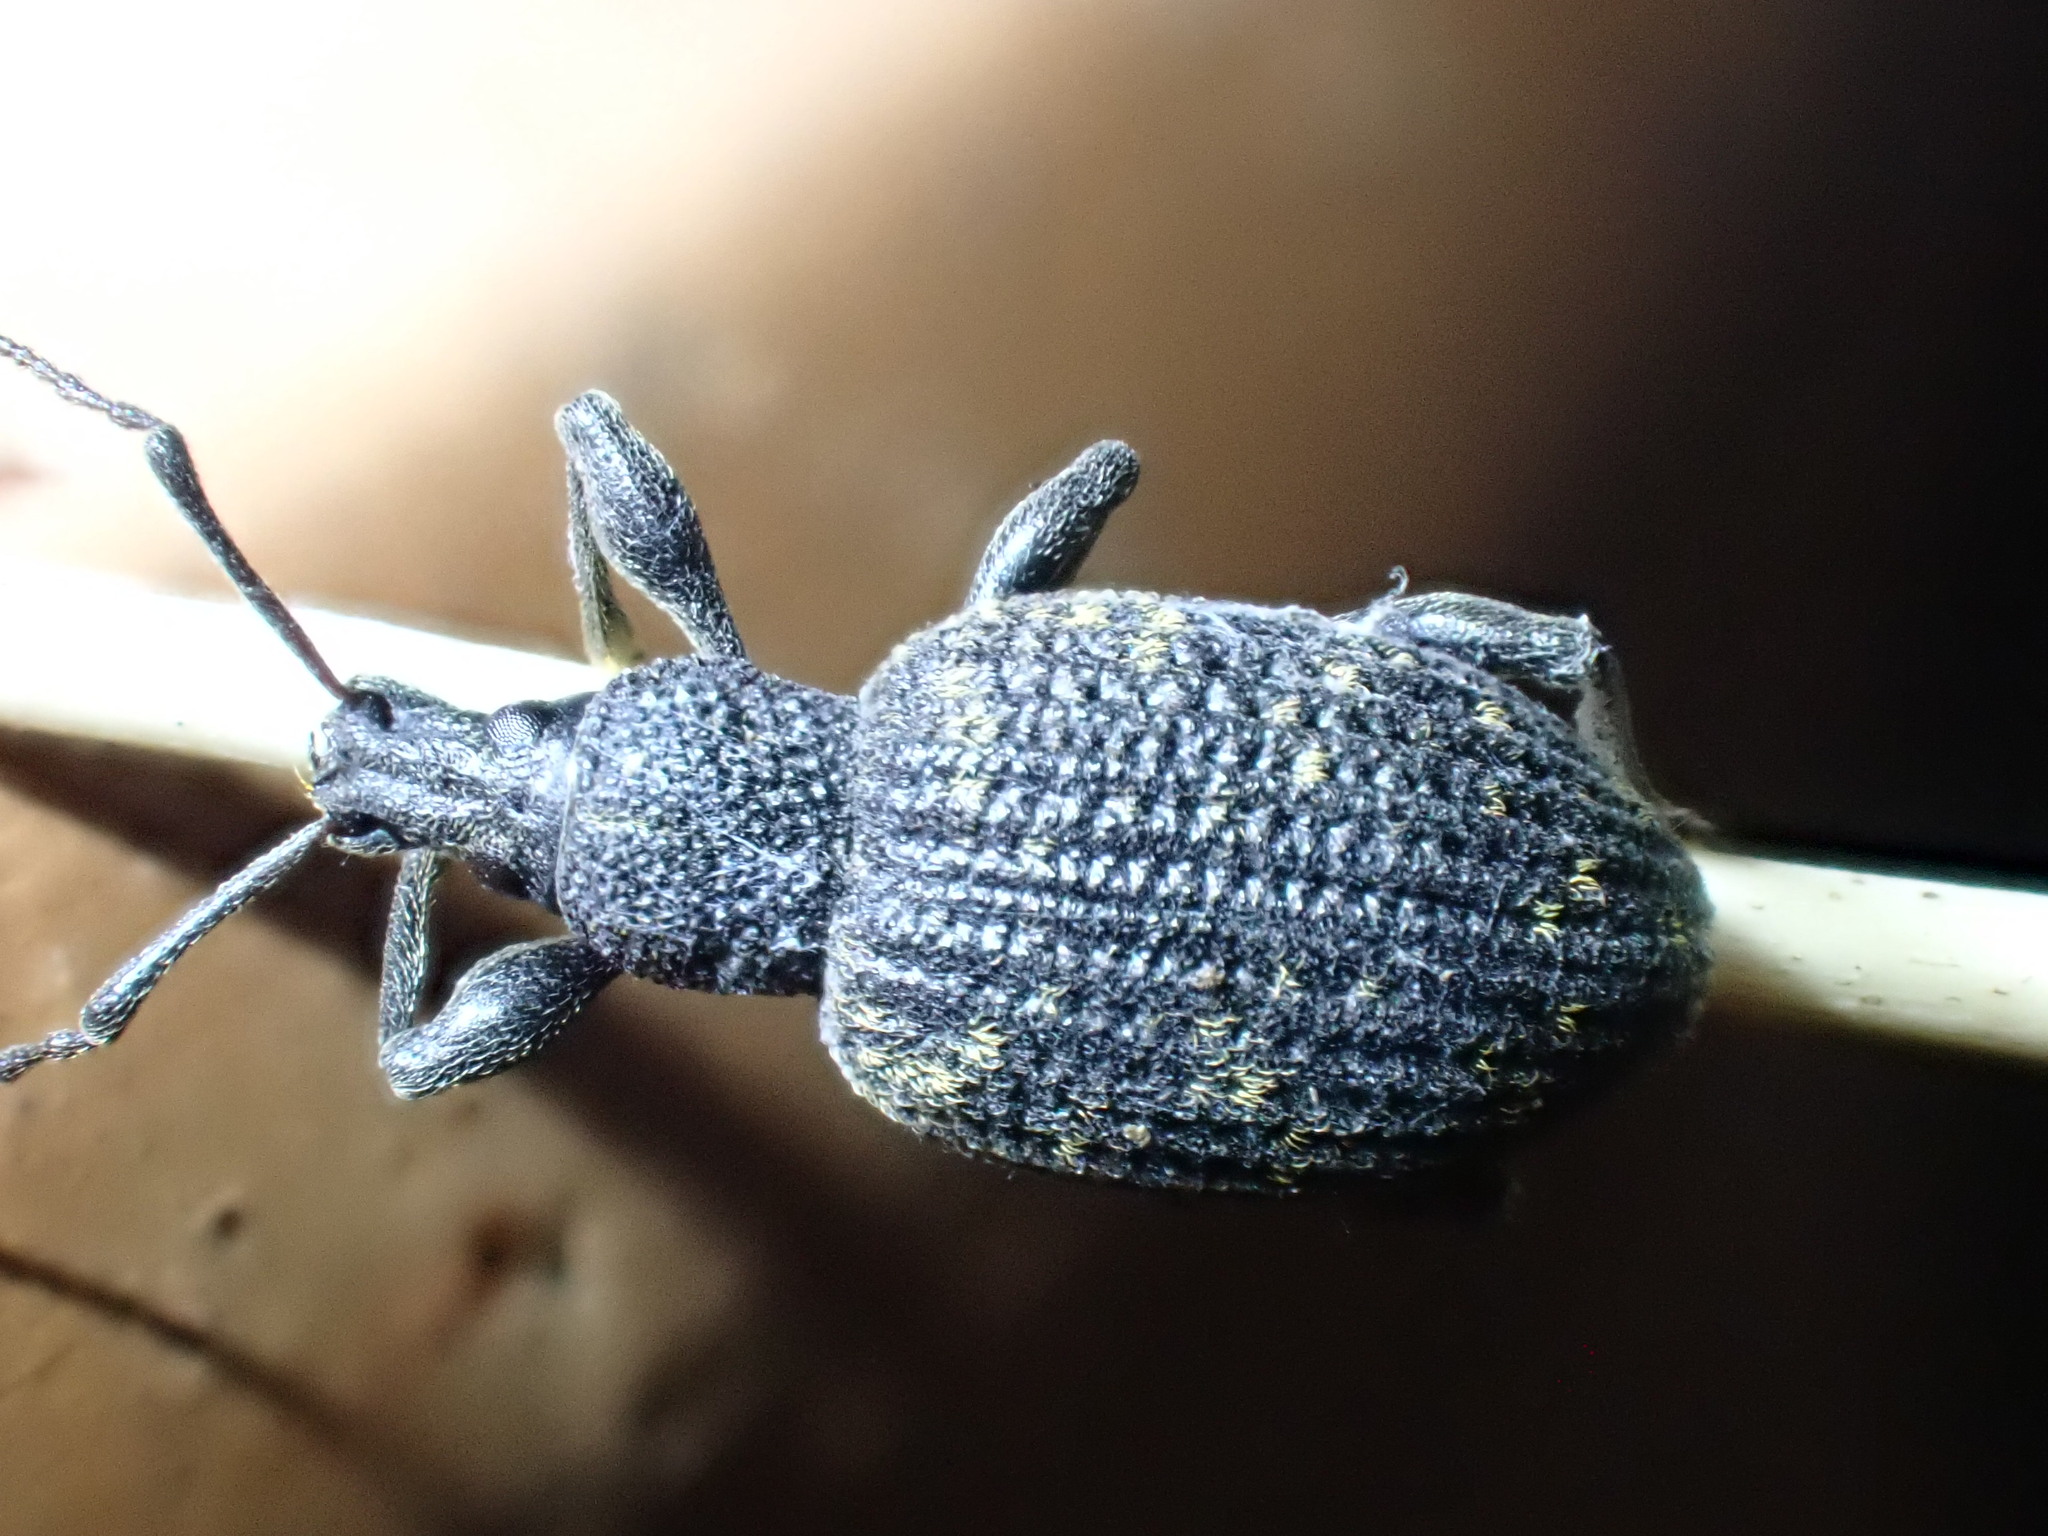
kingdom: Animalia
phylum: Arthropoda
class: Insecta
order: Coleoptera
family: Curculionidae
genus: Otiorhynchus
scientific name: Otiorhynchus sulcatus
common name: Black vine weevil
